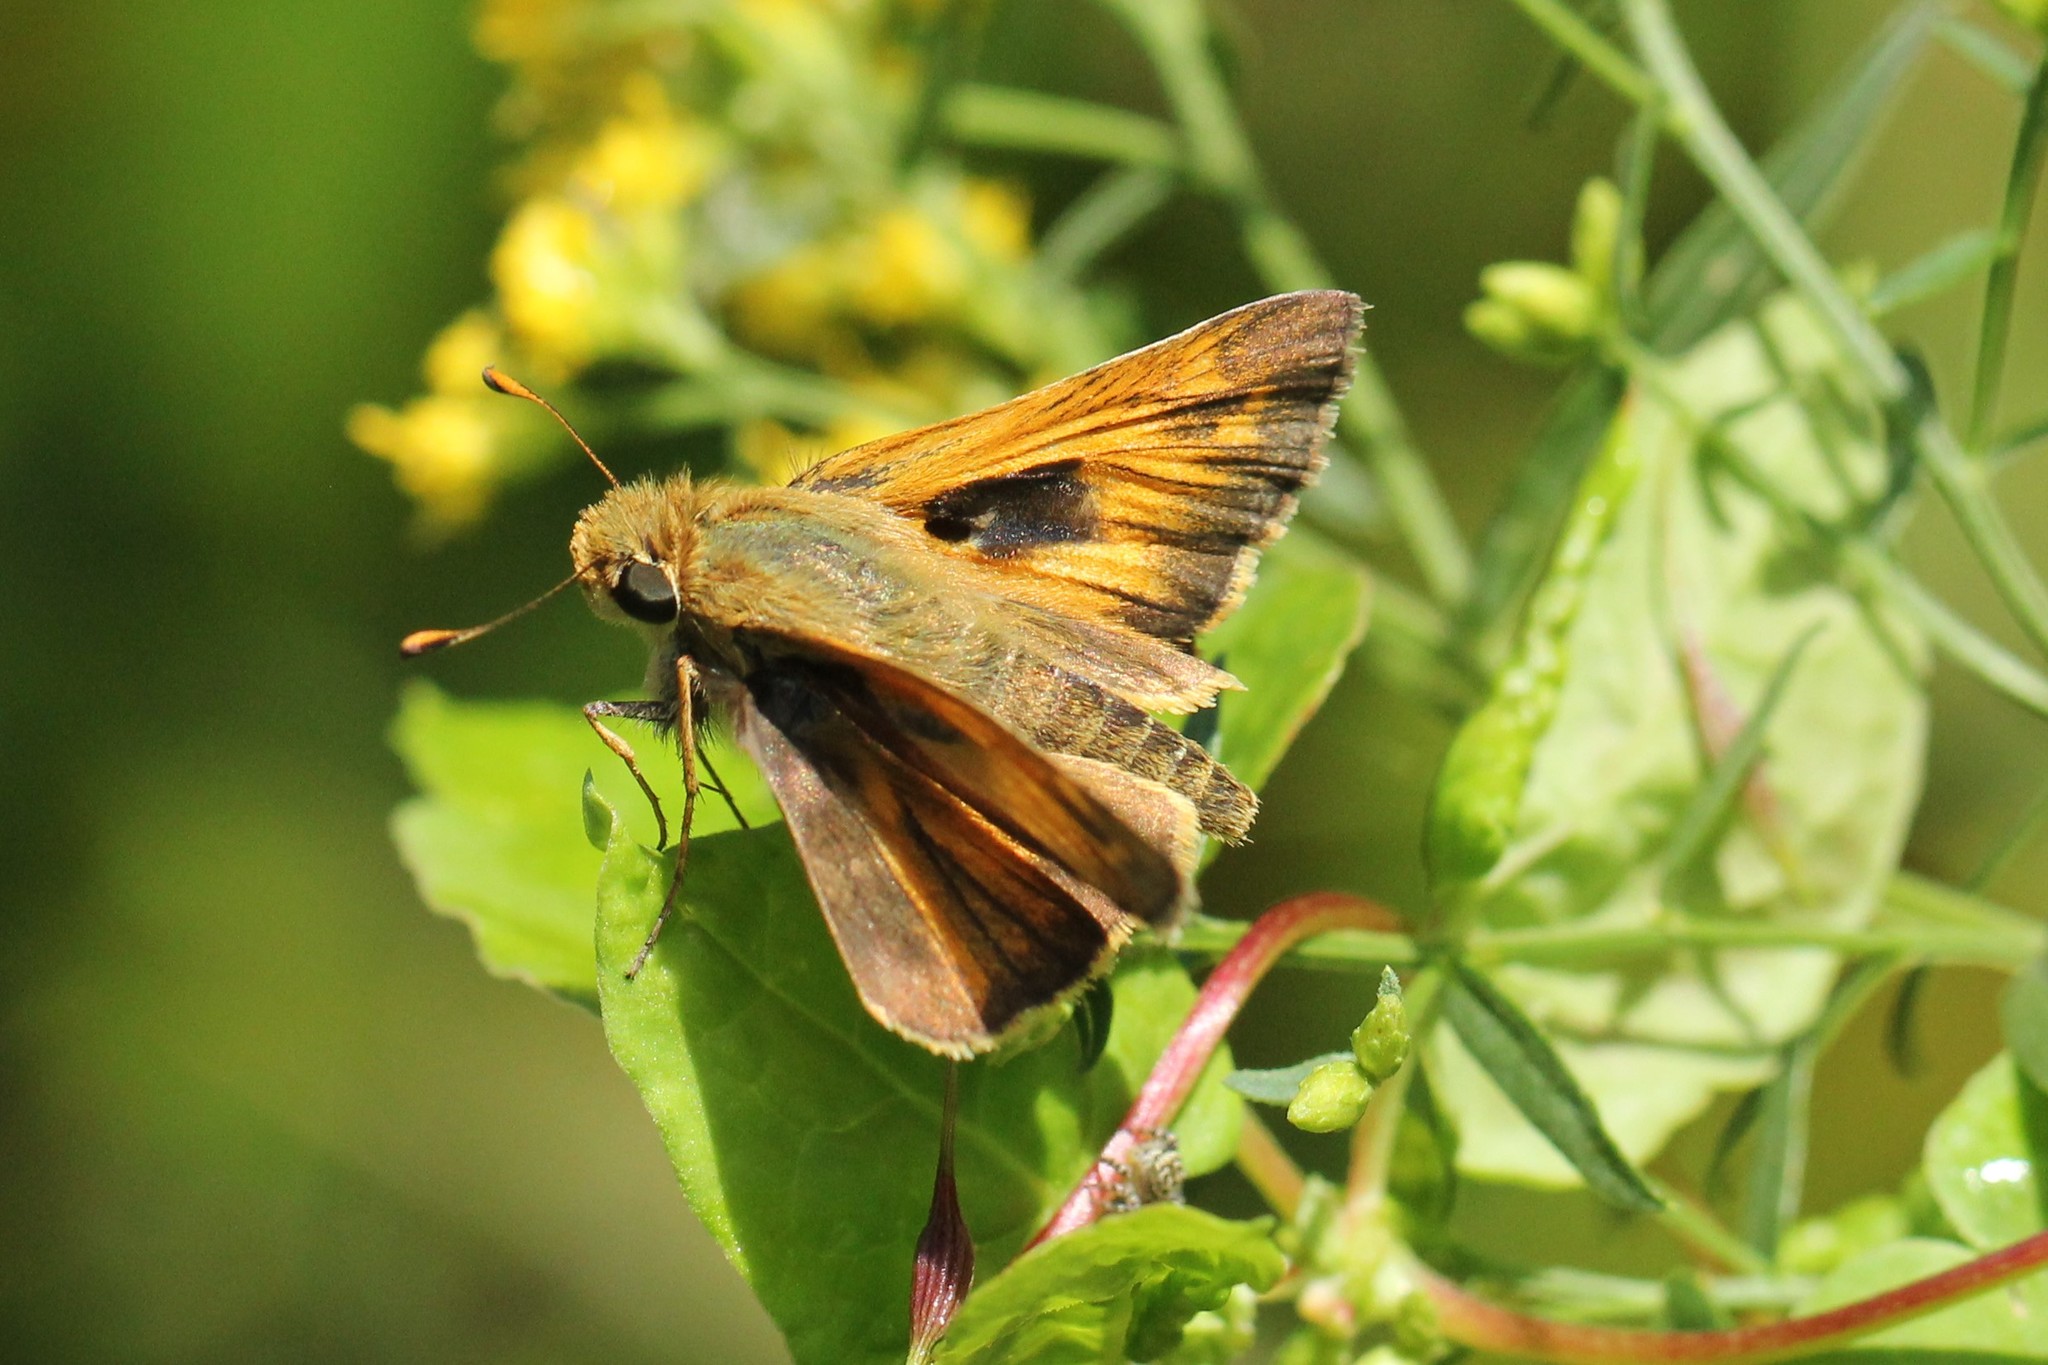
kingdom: Animalia
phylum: Arthropoda
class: Insecta
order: Lepidoptera
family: Hesperiidae
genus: Atalopedes
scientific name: Atalopedes
